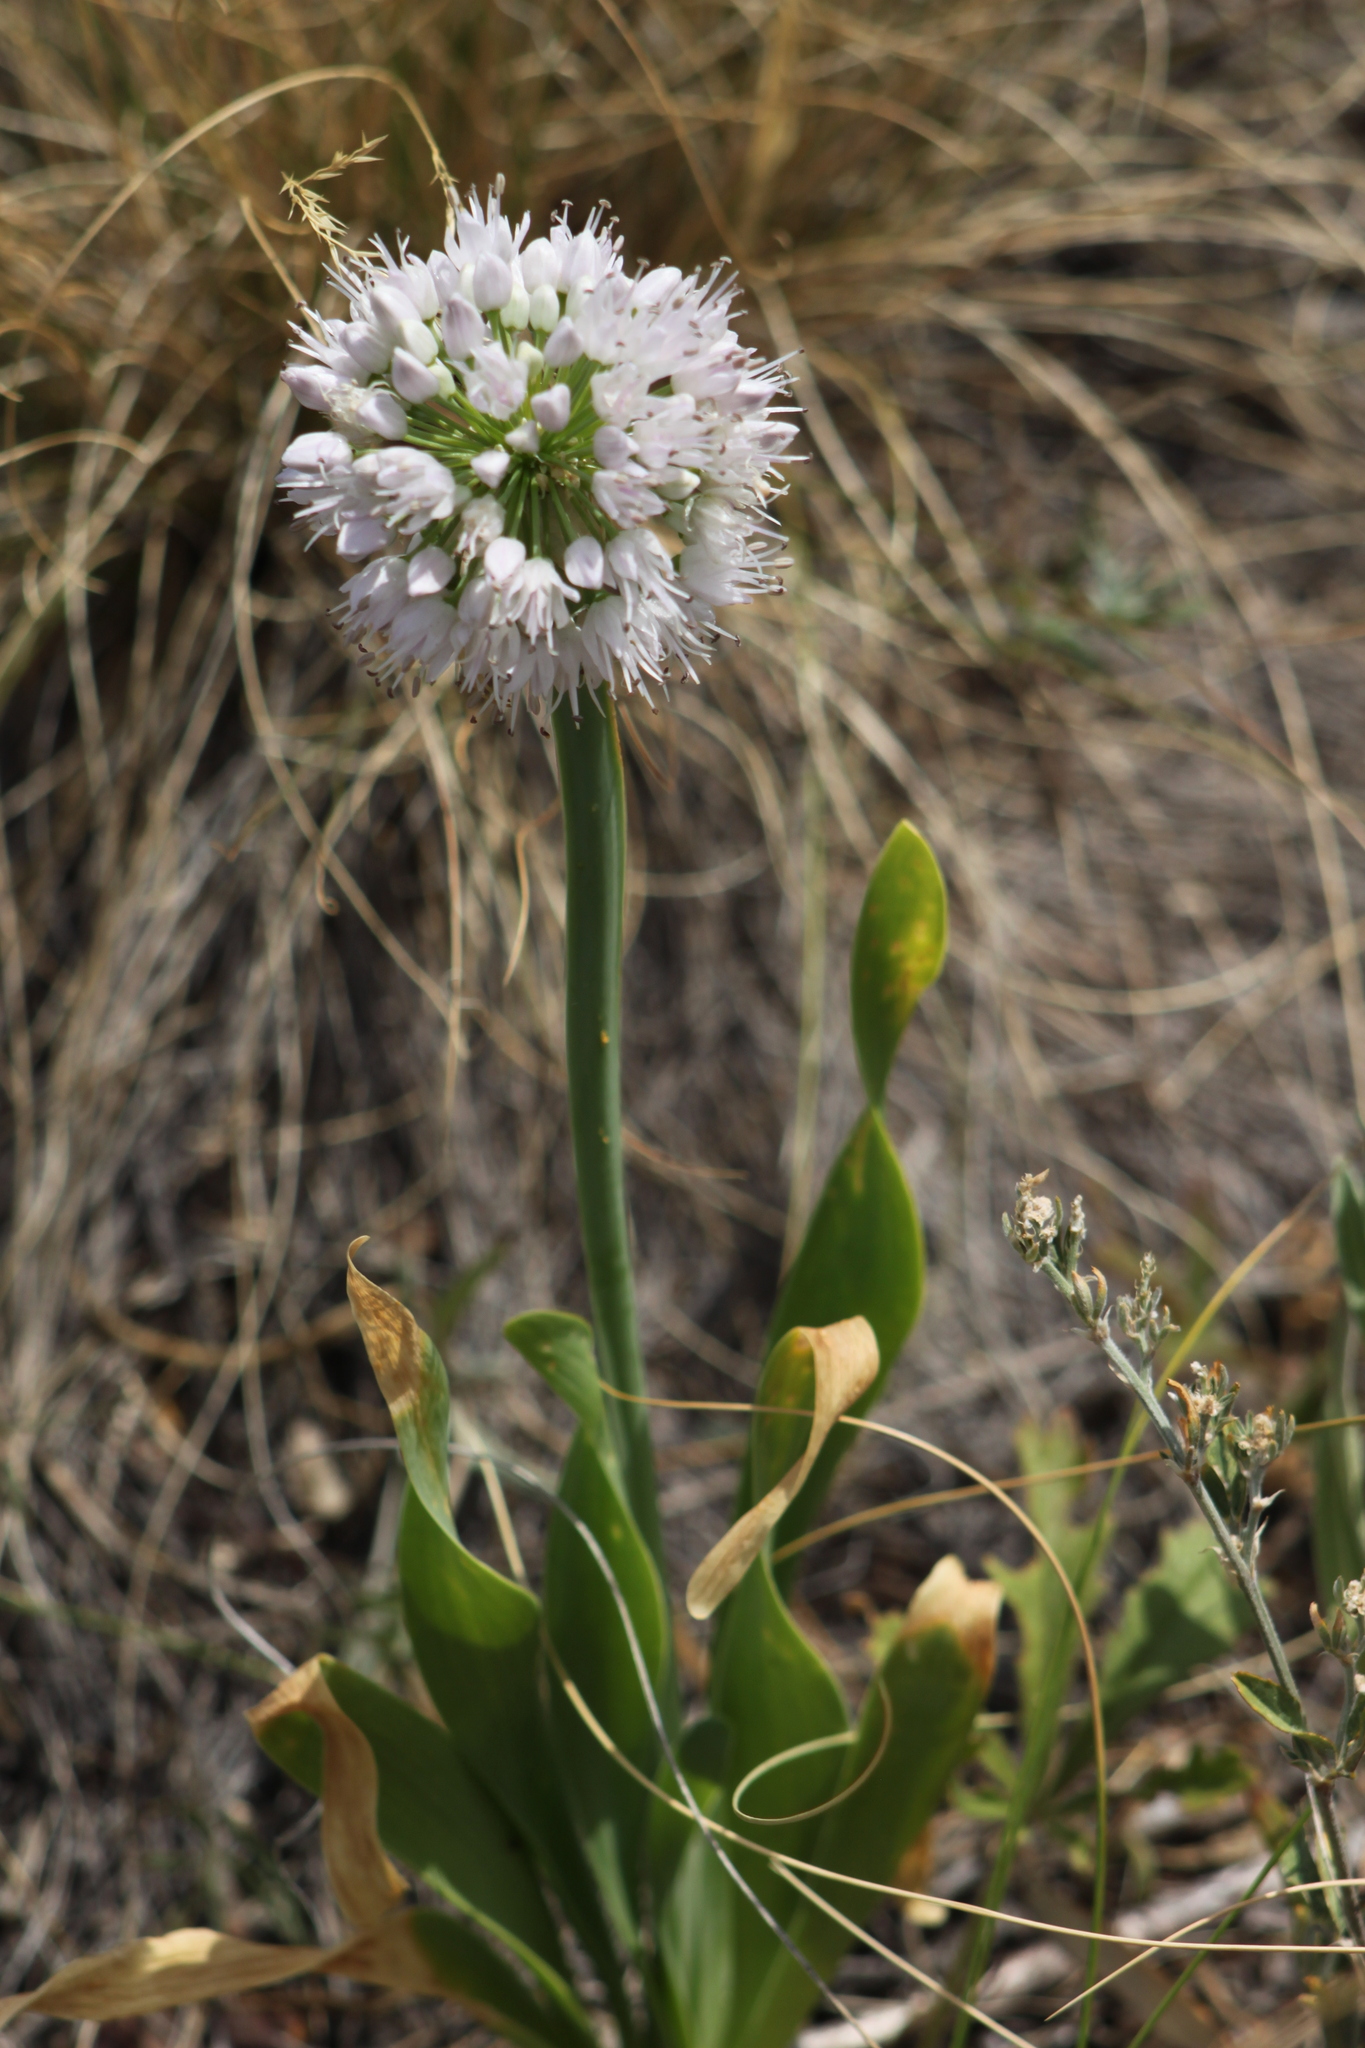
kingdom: Plantae
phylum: Tracheophyta
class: Liliopsida
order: Asparagales
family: Amaryllidaceae
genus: Allium
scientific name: Allium nutans
